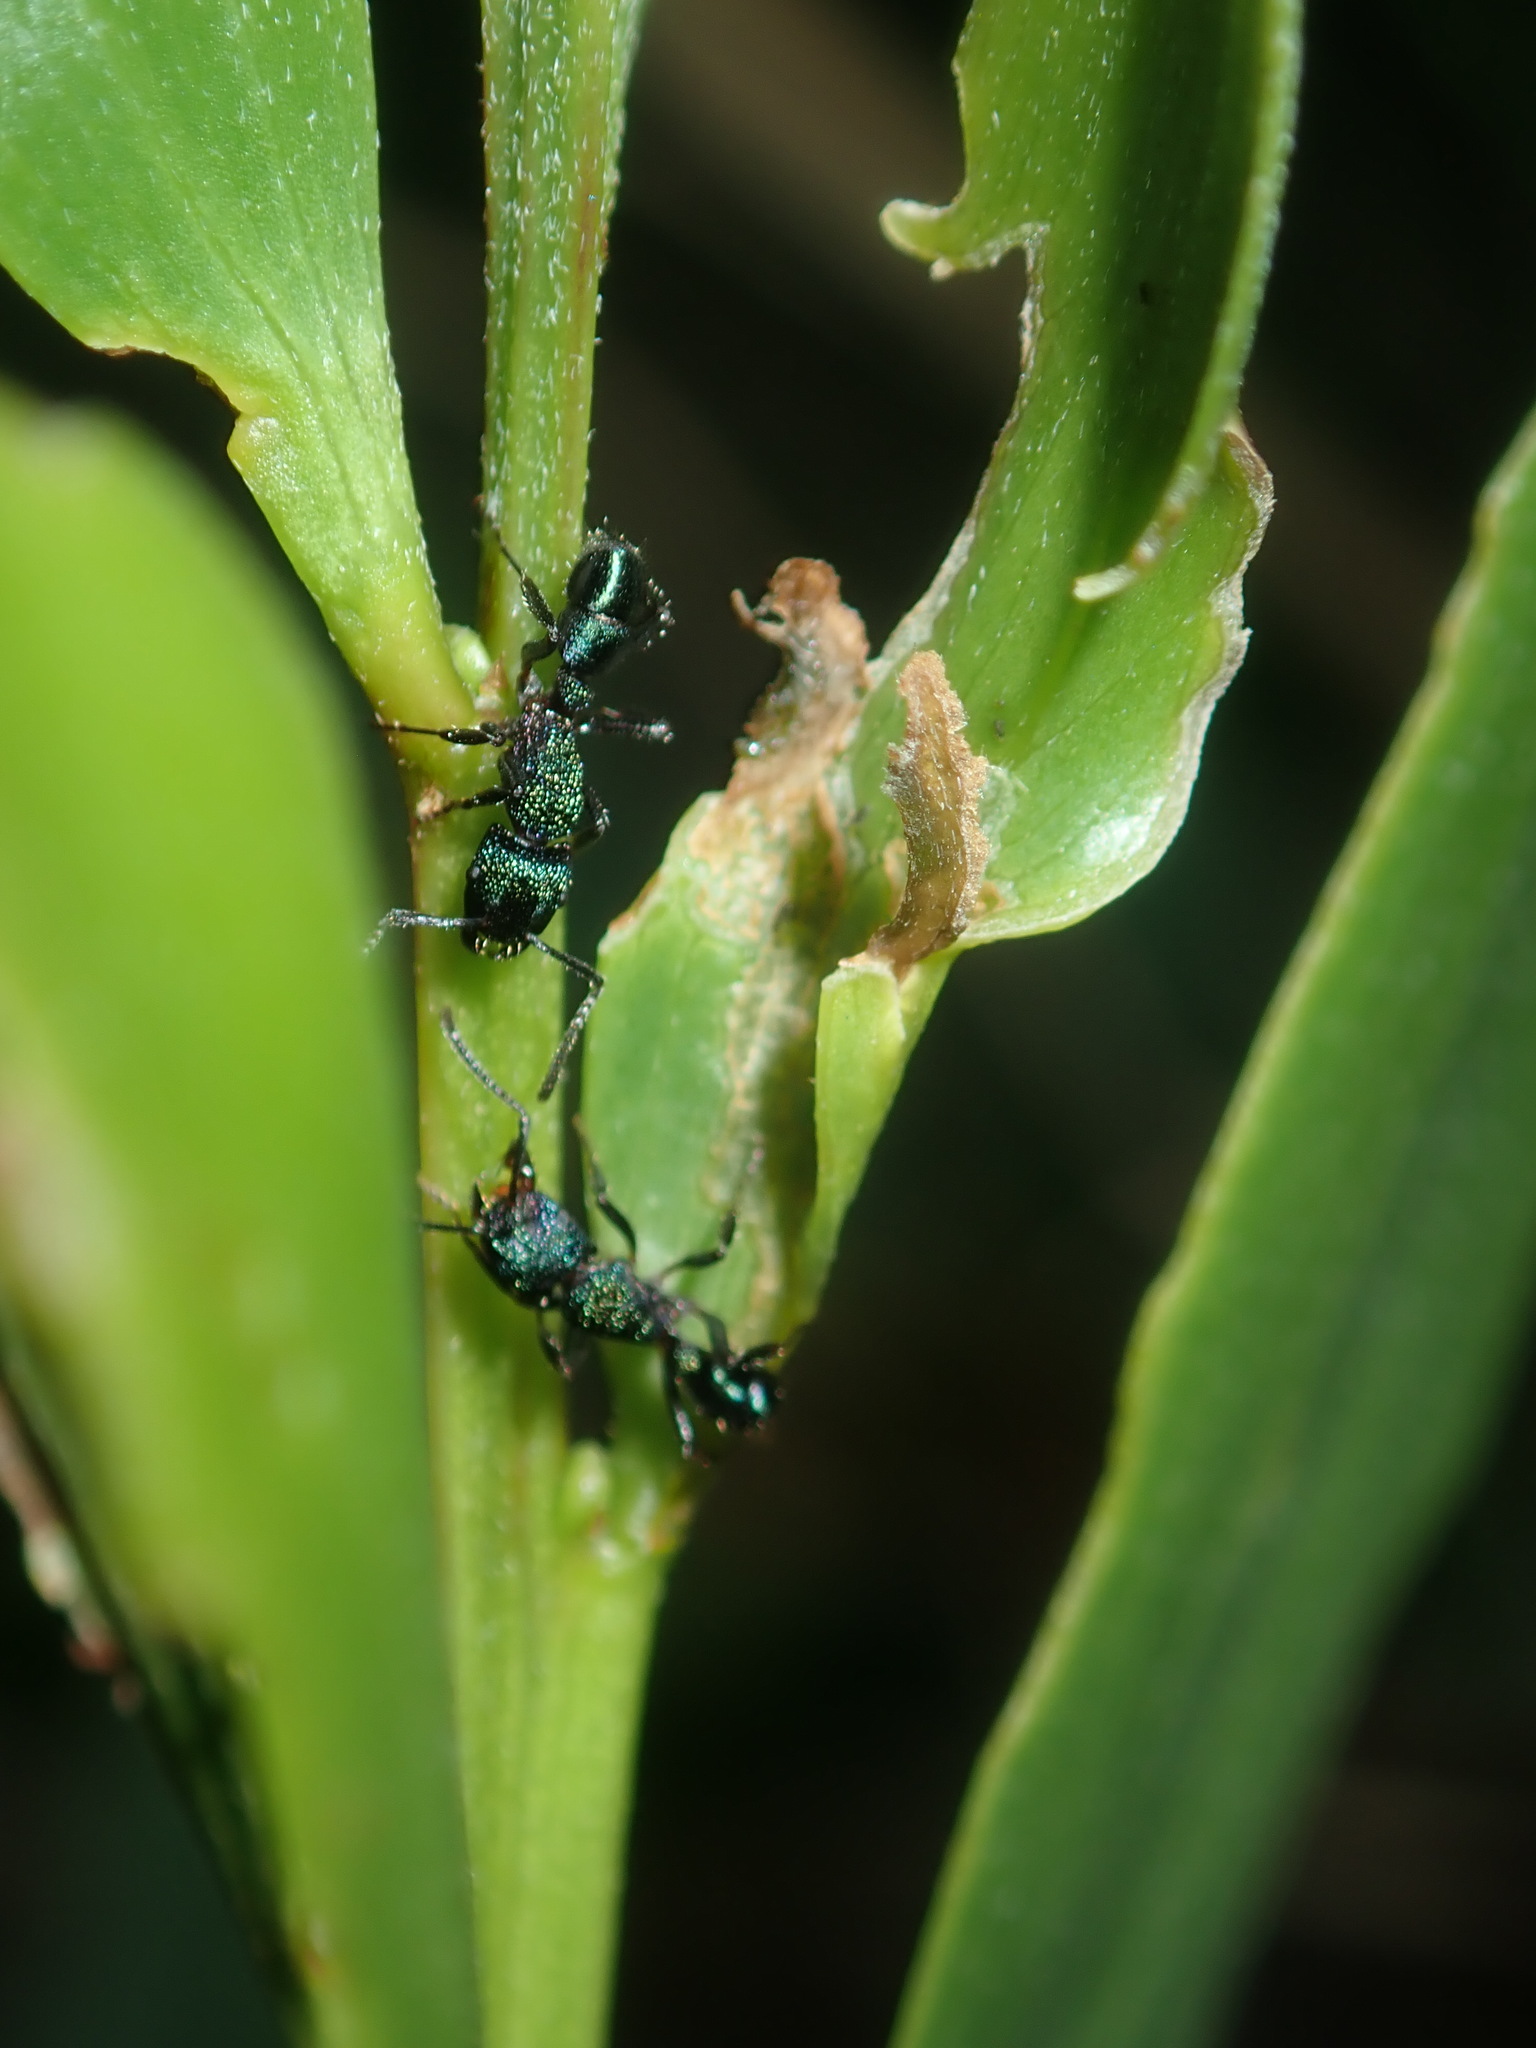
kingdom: Animalia
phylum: Arthropoda
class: Insecta
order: Hymenoptera
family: Formicidae
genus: Rhytidoponera
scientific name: Rhytidoponera metallica
